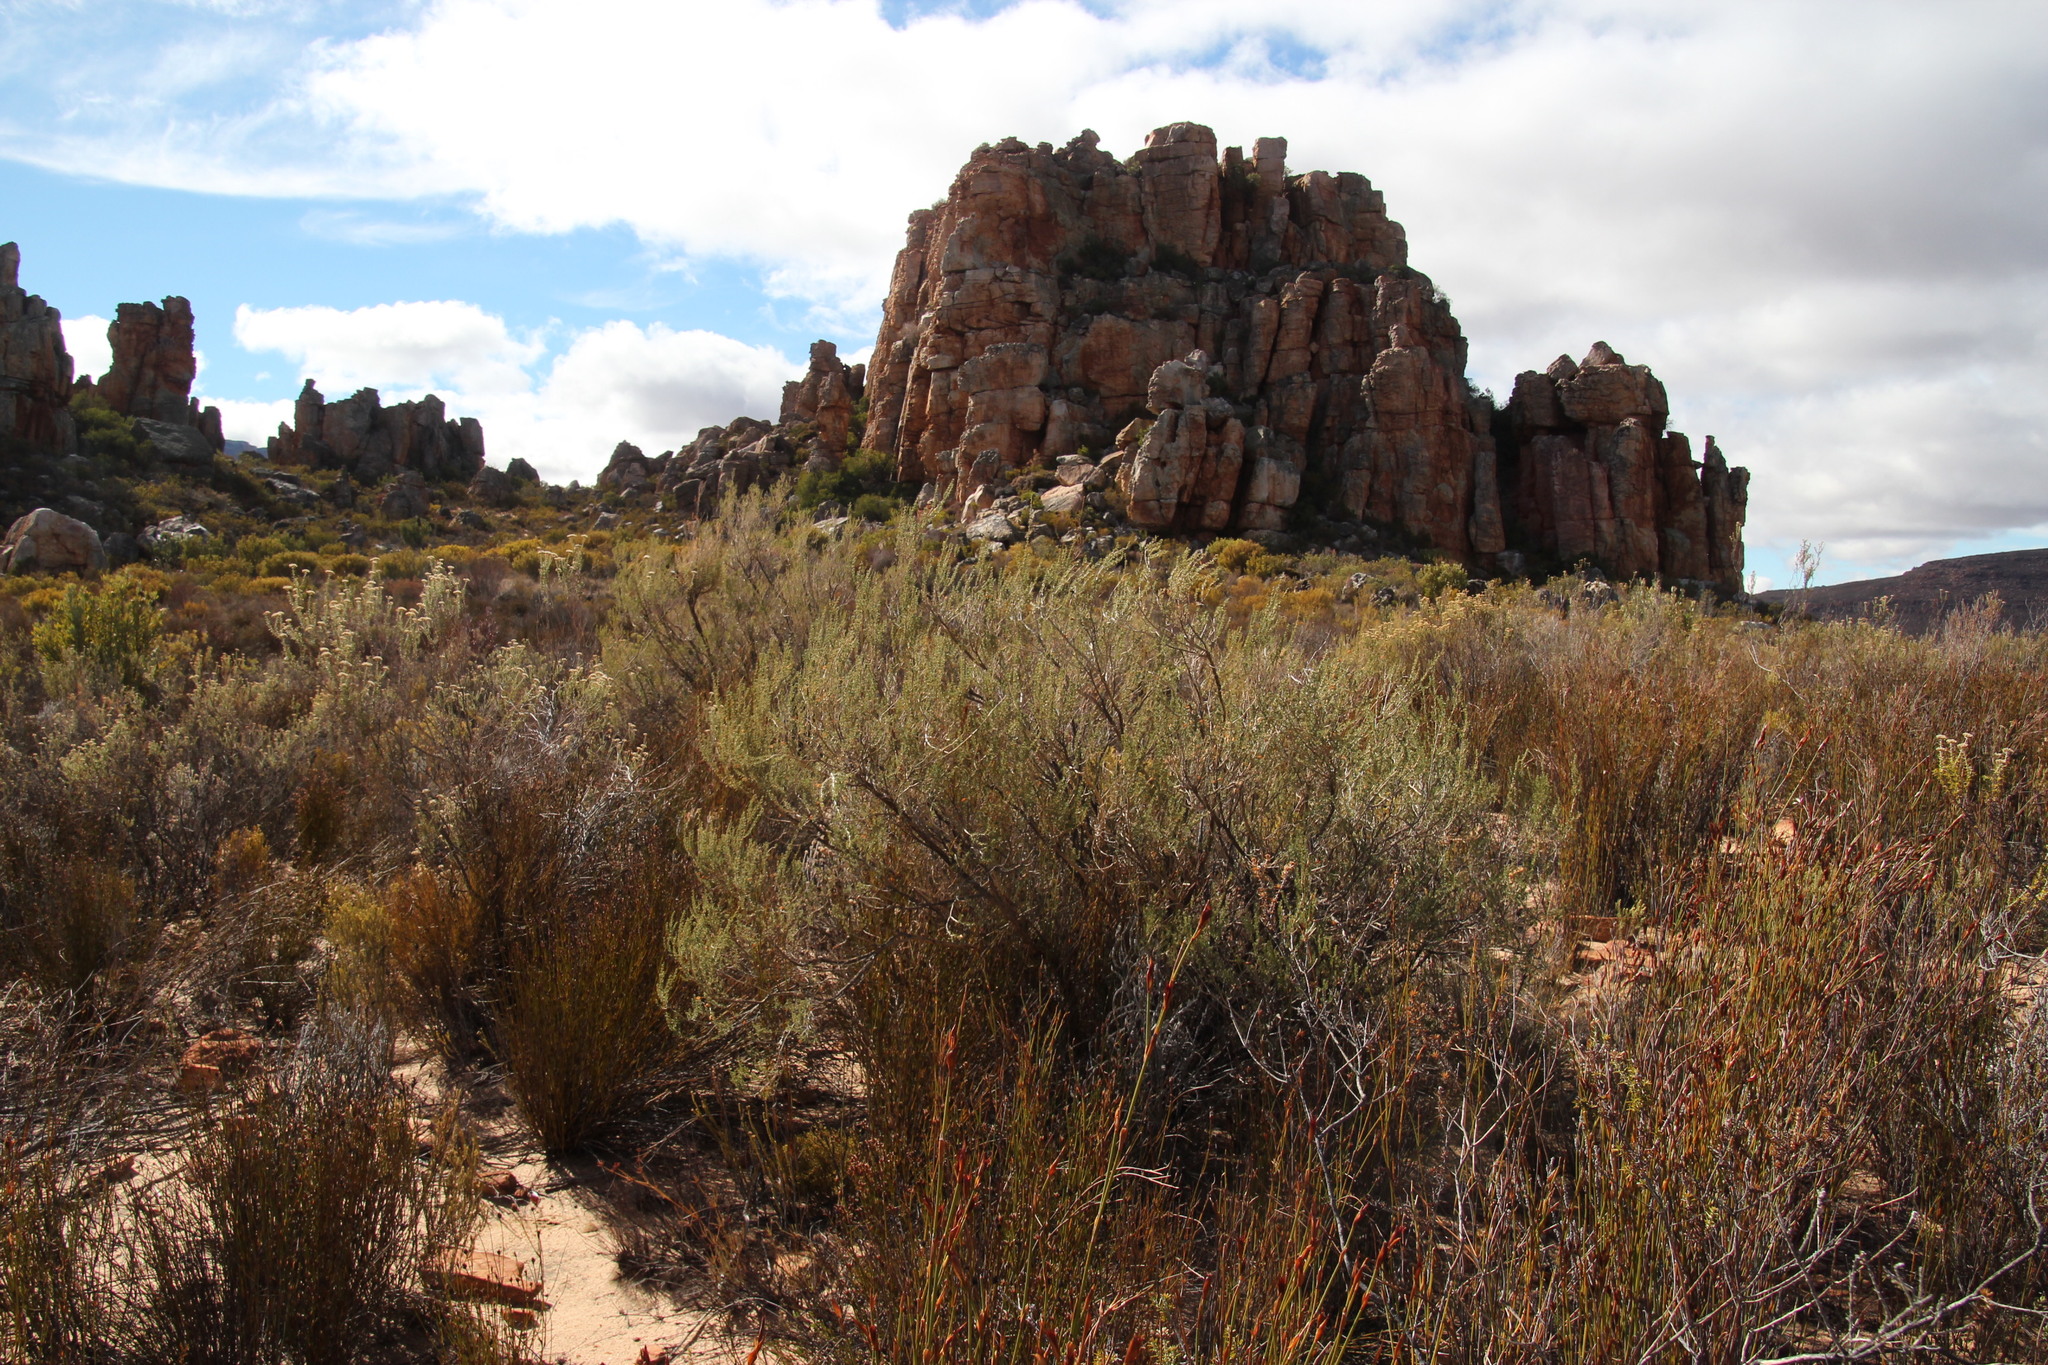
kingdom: Plantae
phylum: Tracheophyta
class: Magnoliopsida
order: Fabales
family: Fabaceae
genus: Aspalathus
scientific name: Aspalathus dianthopora
